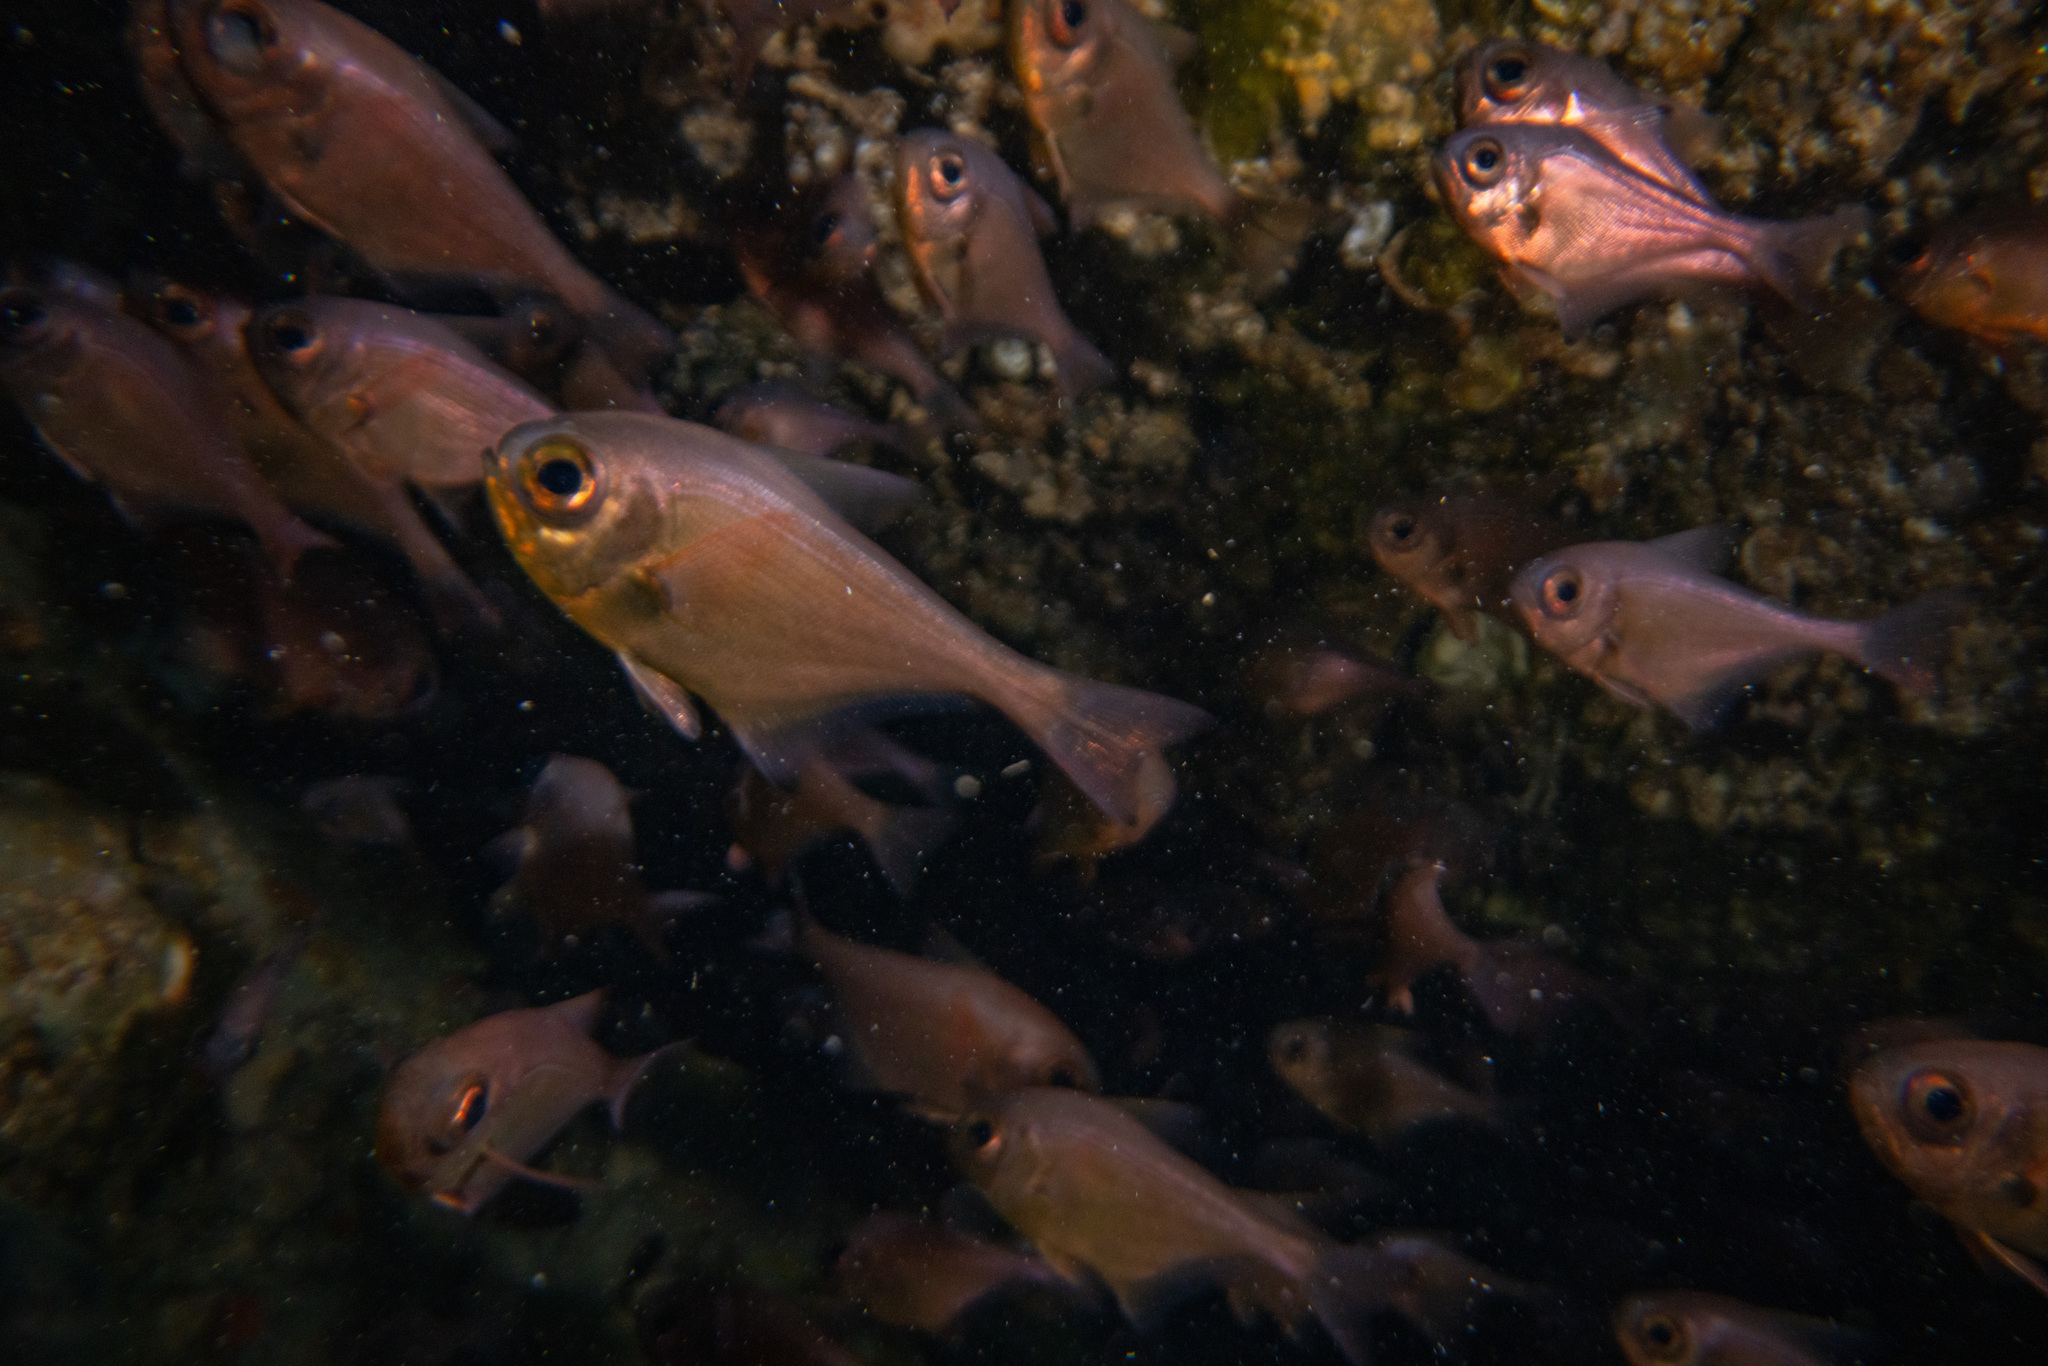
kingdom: Animalia
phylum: Chordata
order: Perciformes
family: Pempheridae
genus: Pempheris
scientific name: Pempheris adspersa
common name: Bigeye
